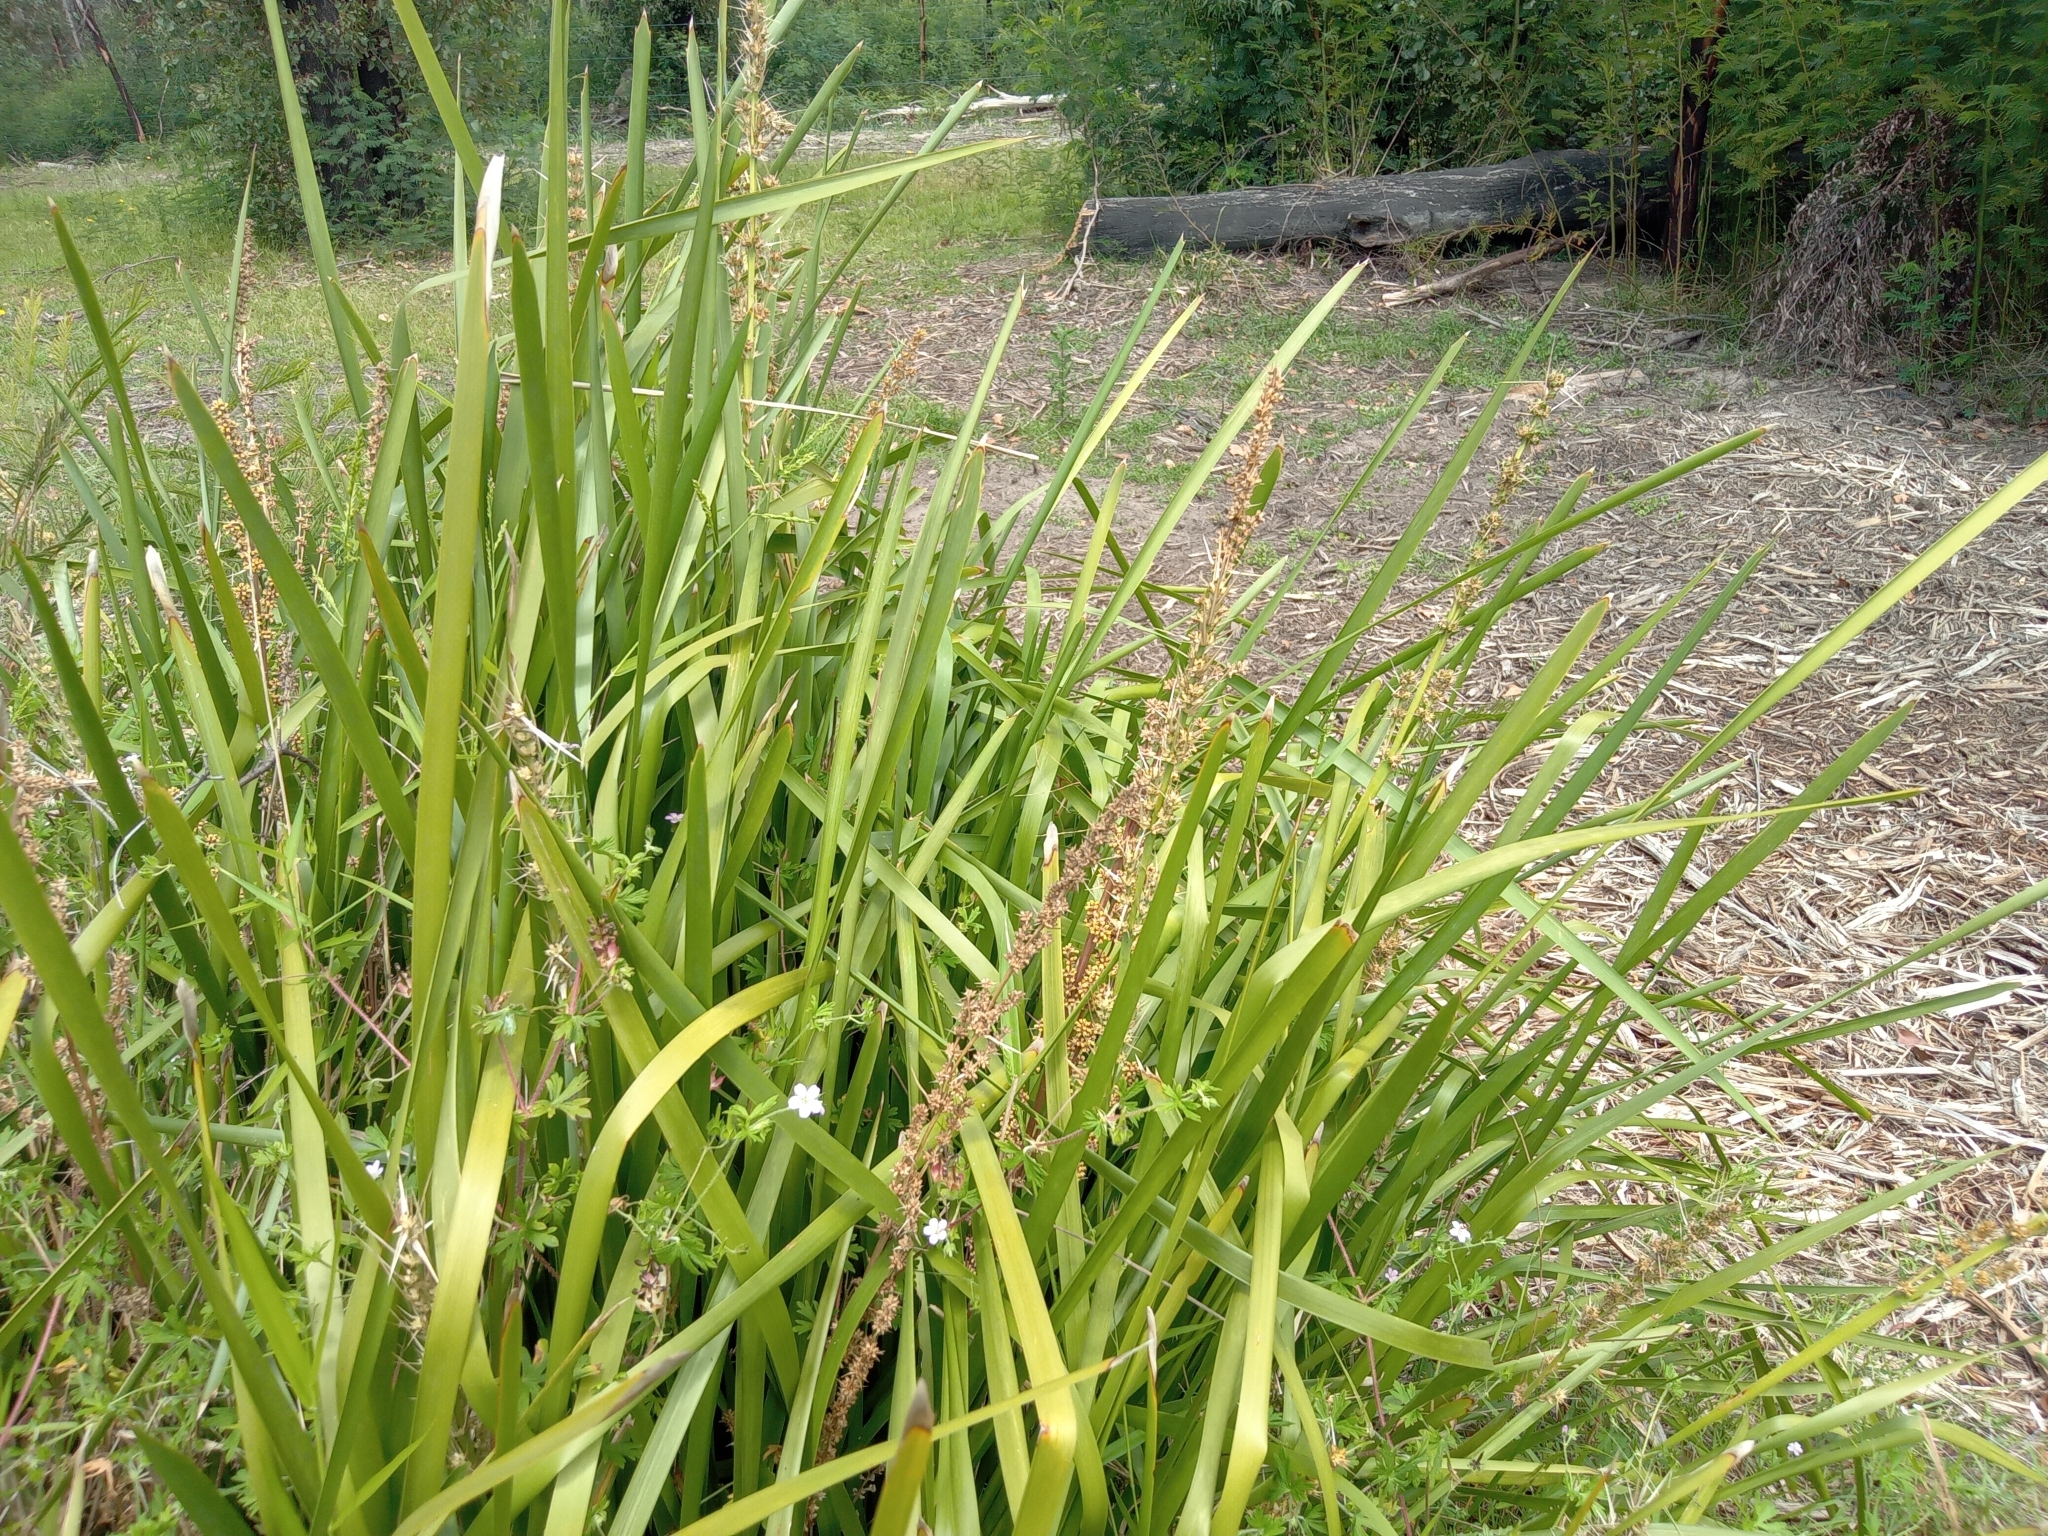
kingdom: Plantae
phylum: Tracheophyta
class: Liliopsida
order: Asparagales
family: Asparagaceae
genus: Lomandra
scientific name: Lomandra longifolia
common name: Longleaf mat-rush
